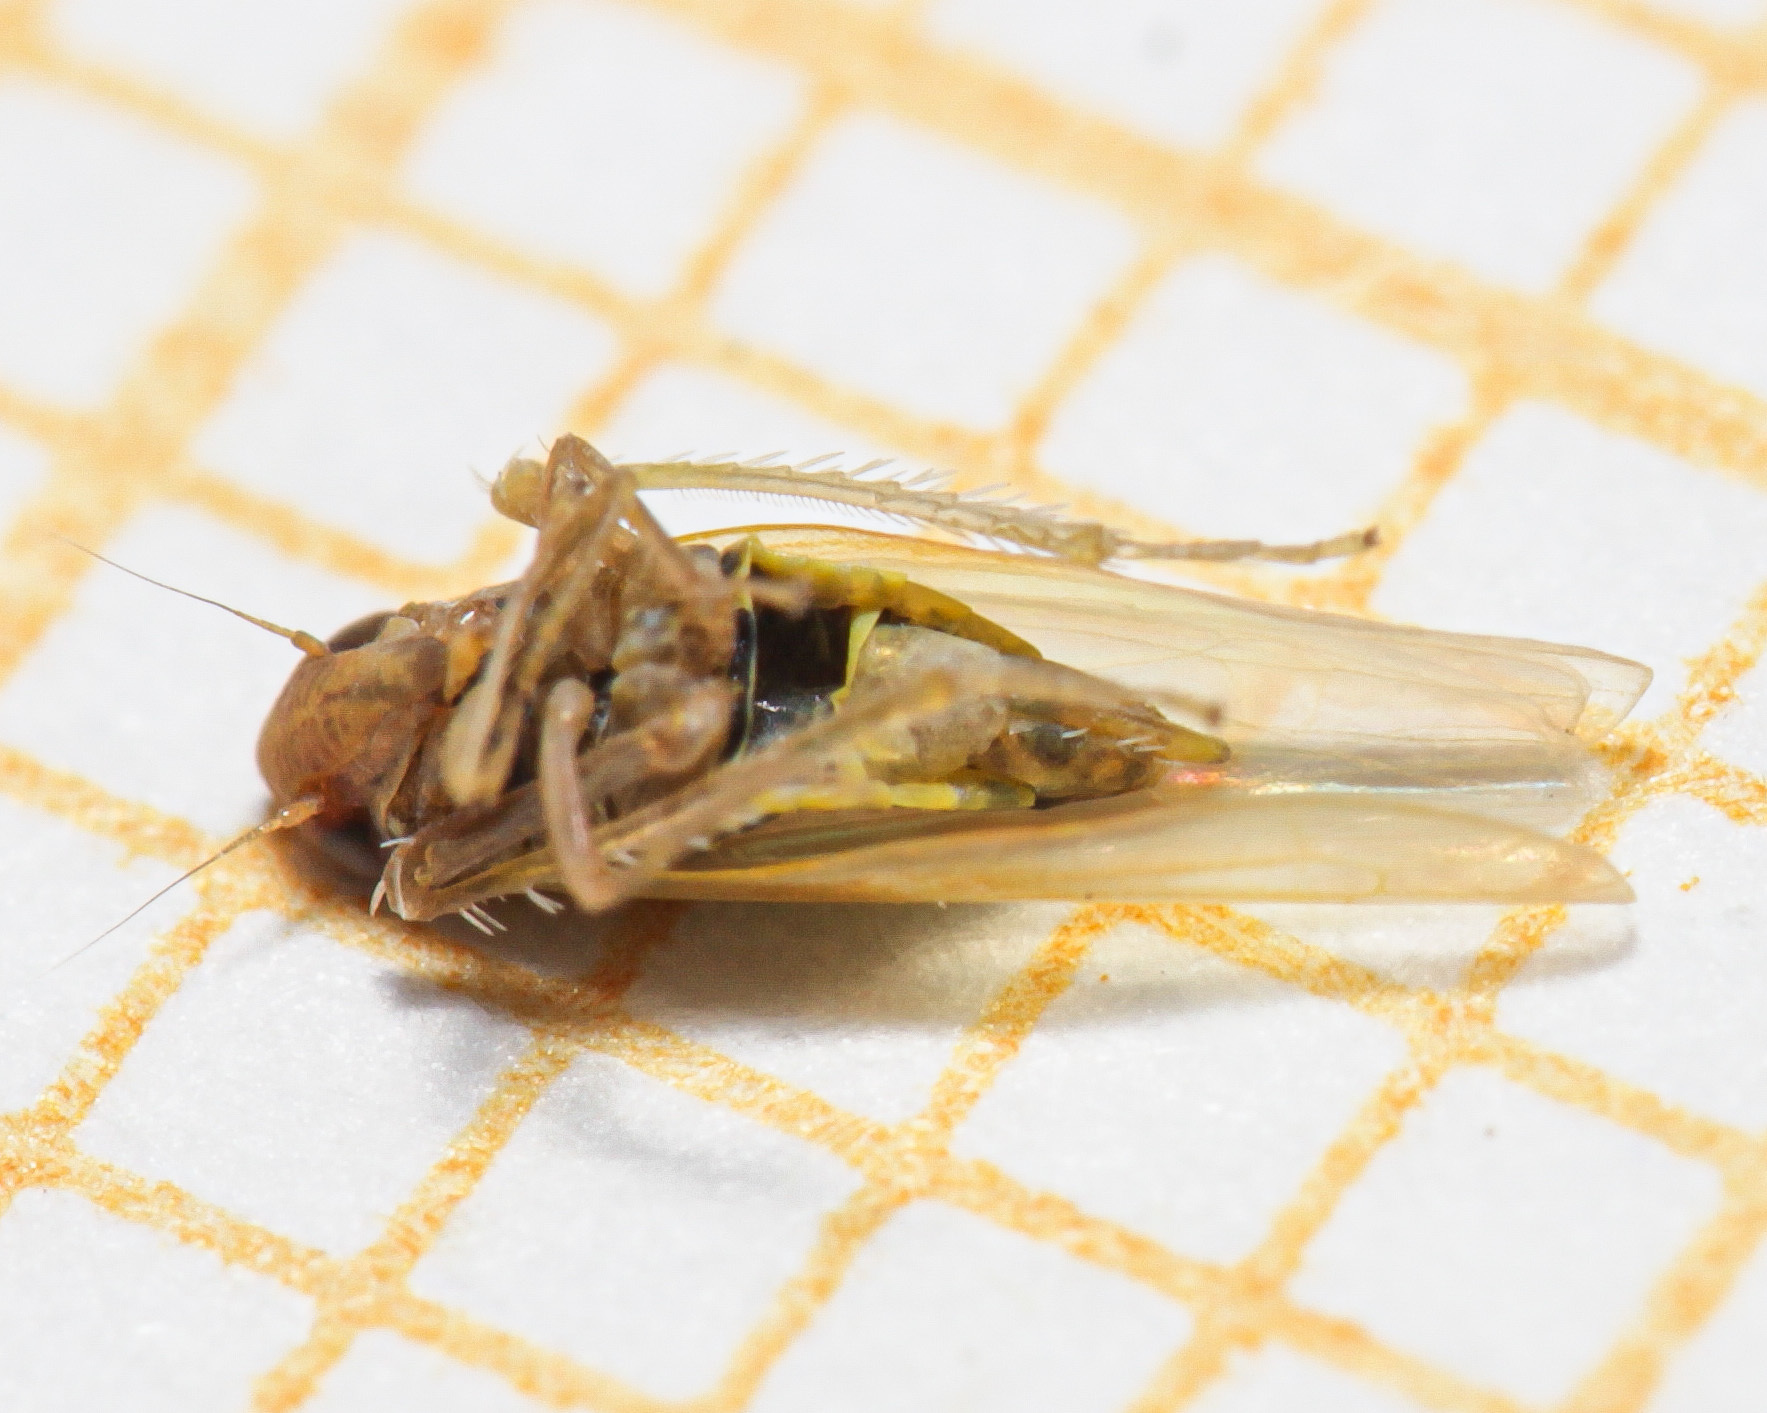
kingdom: Animalia
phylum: Arthropoda
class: Insecta
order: Hemiptera
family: Cicadellidae
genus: Emelyanoviana
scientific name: Emelyanoviana mollicula
